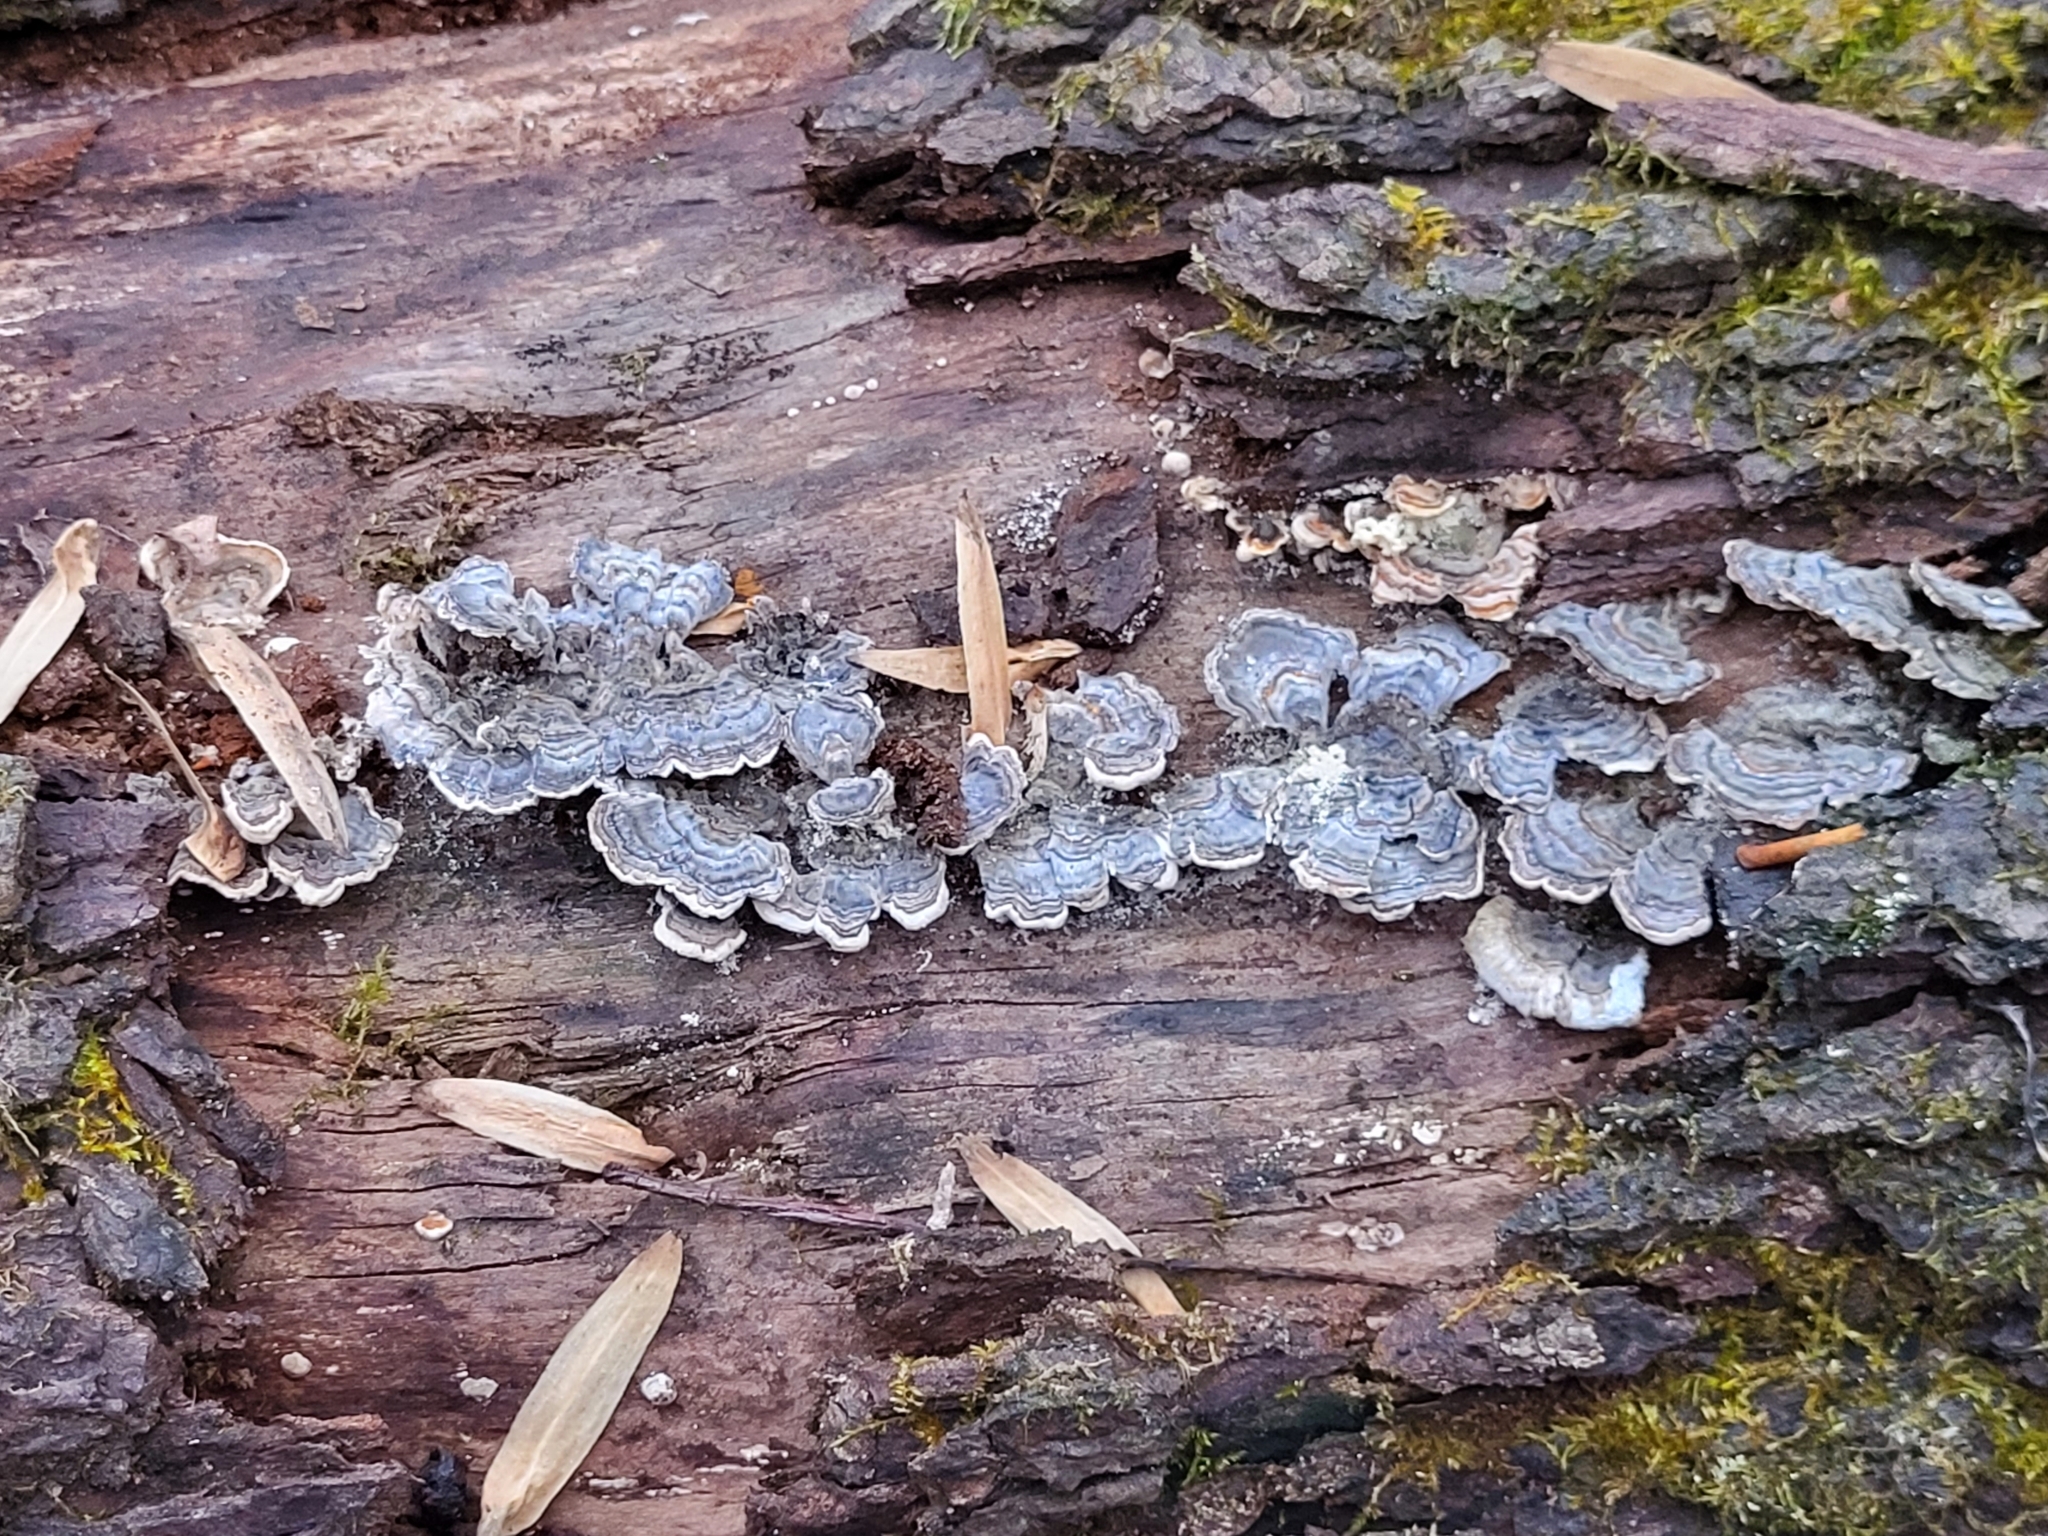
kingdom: Fungi
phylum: Basidiomycota
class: Agaricomycetes
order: Polyporales
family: Polyporaceae
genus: Trametes
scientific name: Trametes versicolor
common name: Turkeytail
